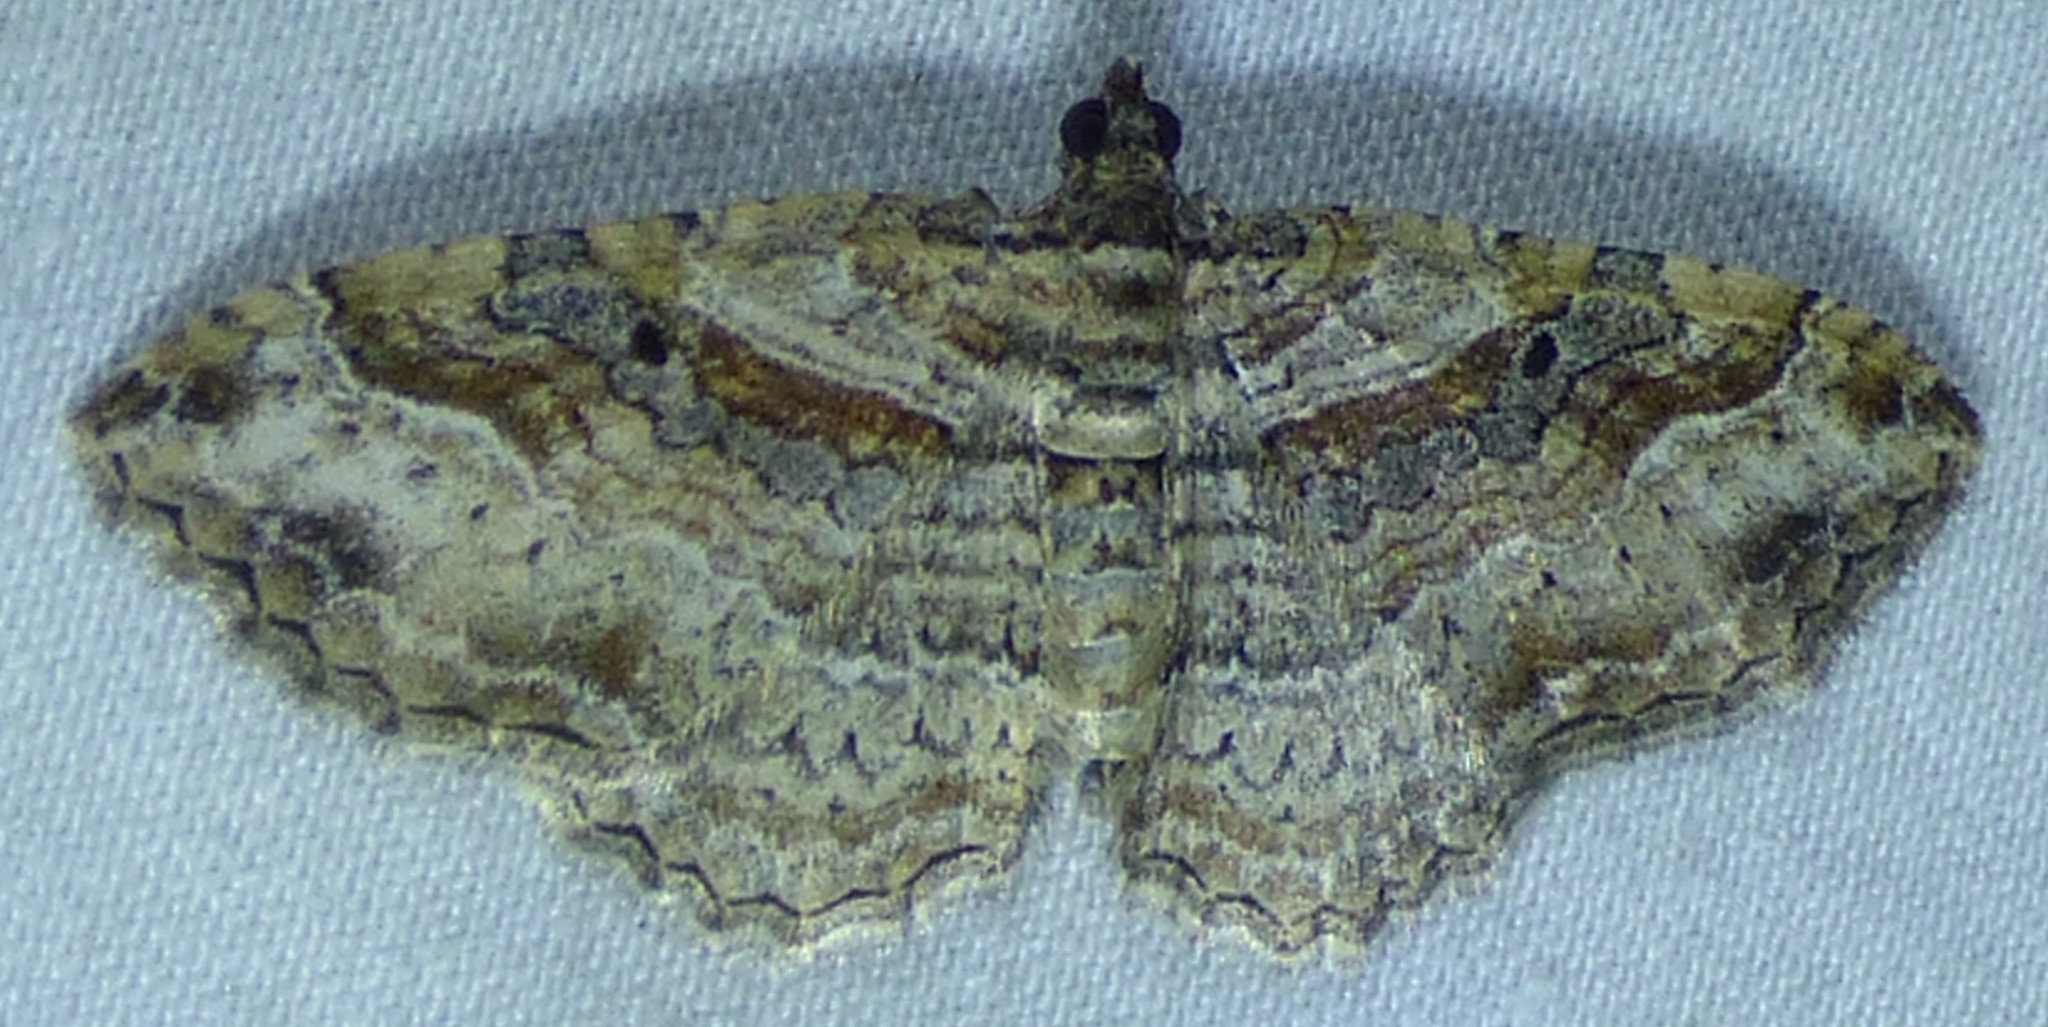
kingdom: Animalia
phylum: Arthropoda
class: Insecta
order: Lepidoptera
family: Geometridae
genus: Costaconvexa
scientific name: Costaconvexa centrostrigaria
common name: Bent-line carpet
